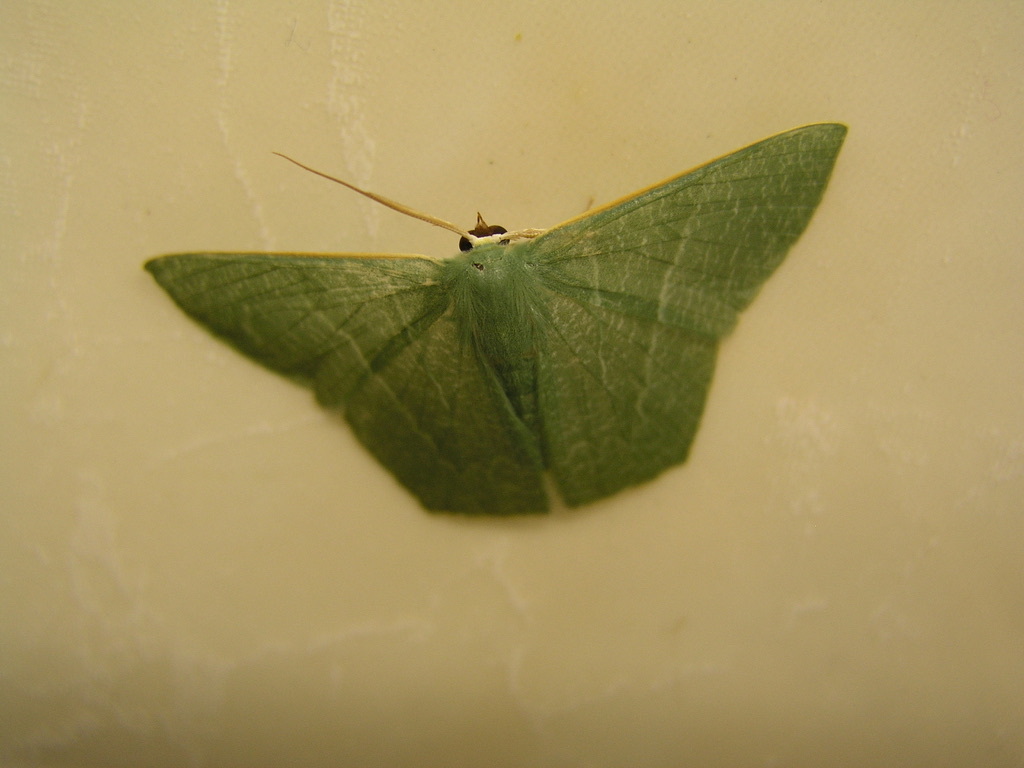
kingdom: Animalia
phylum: Arthropoda
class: Insecta
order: Lepidoptera
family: Geometridae
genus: Thalassodes
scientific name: Thalassodes pilaria
